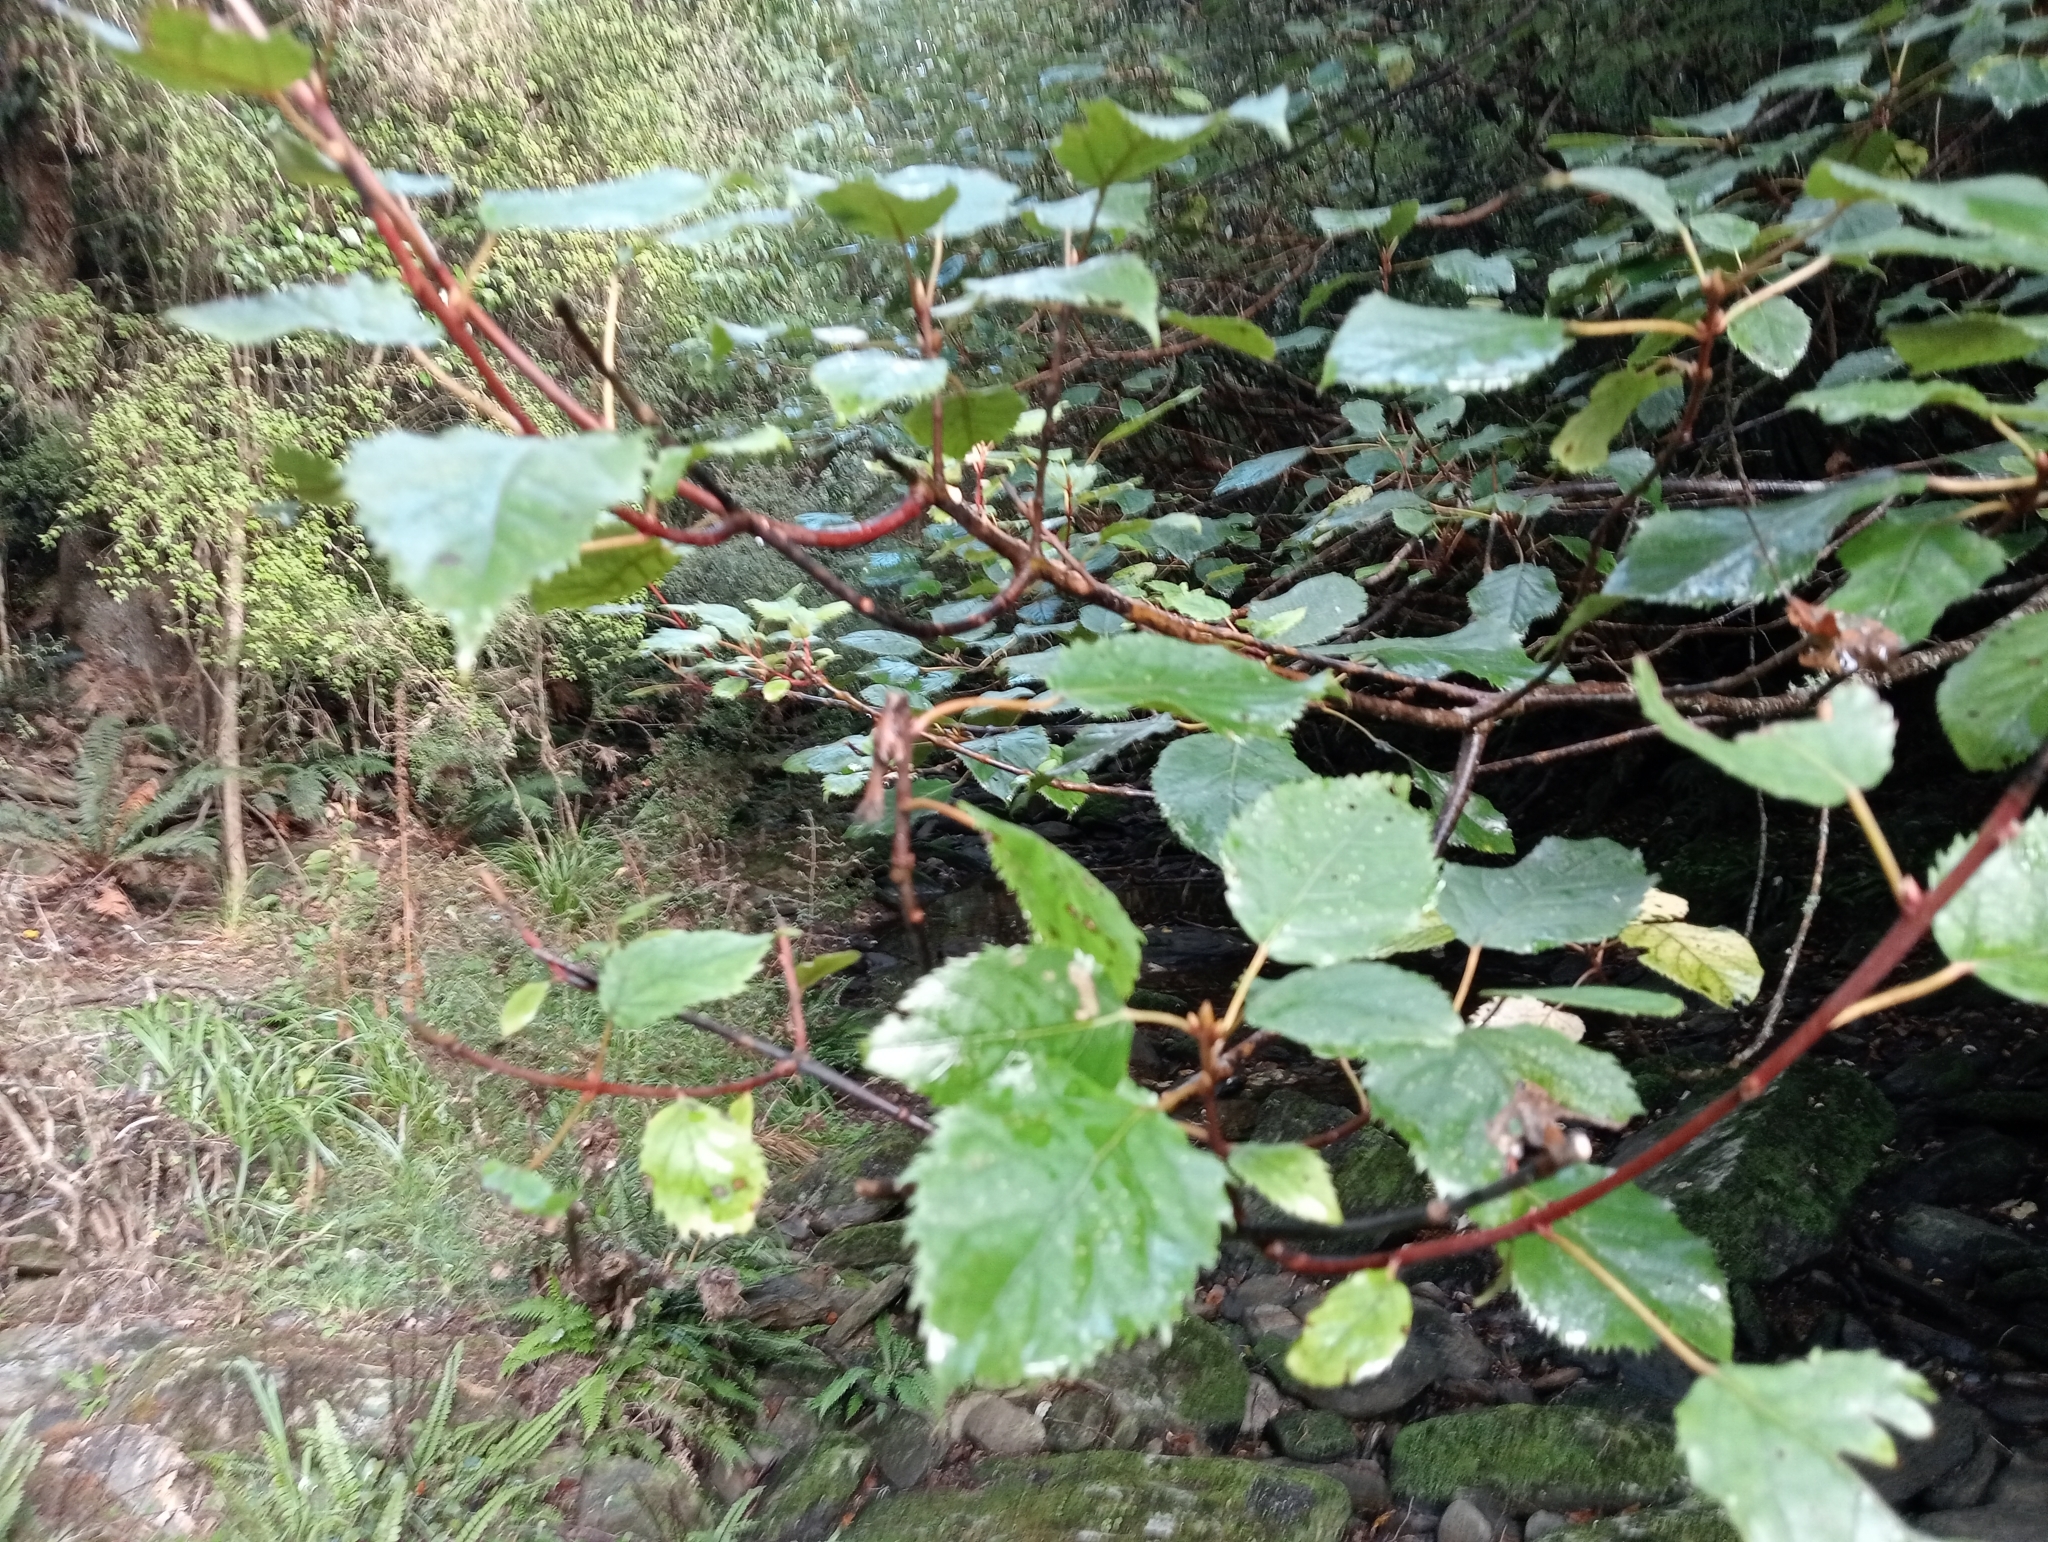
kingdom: Plantae
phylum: Tracheophyta
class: Magnoliopsida
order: Oxalidales
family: Elaeocarpaceae
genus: Aristotelia
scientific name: Aristotelia serrata
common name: New zealand wineberry
